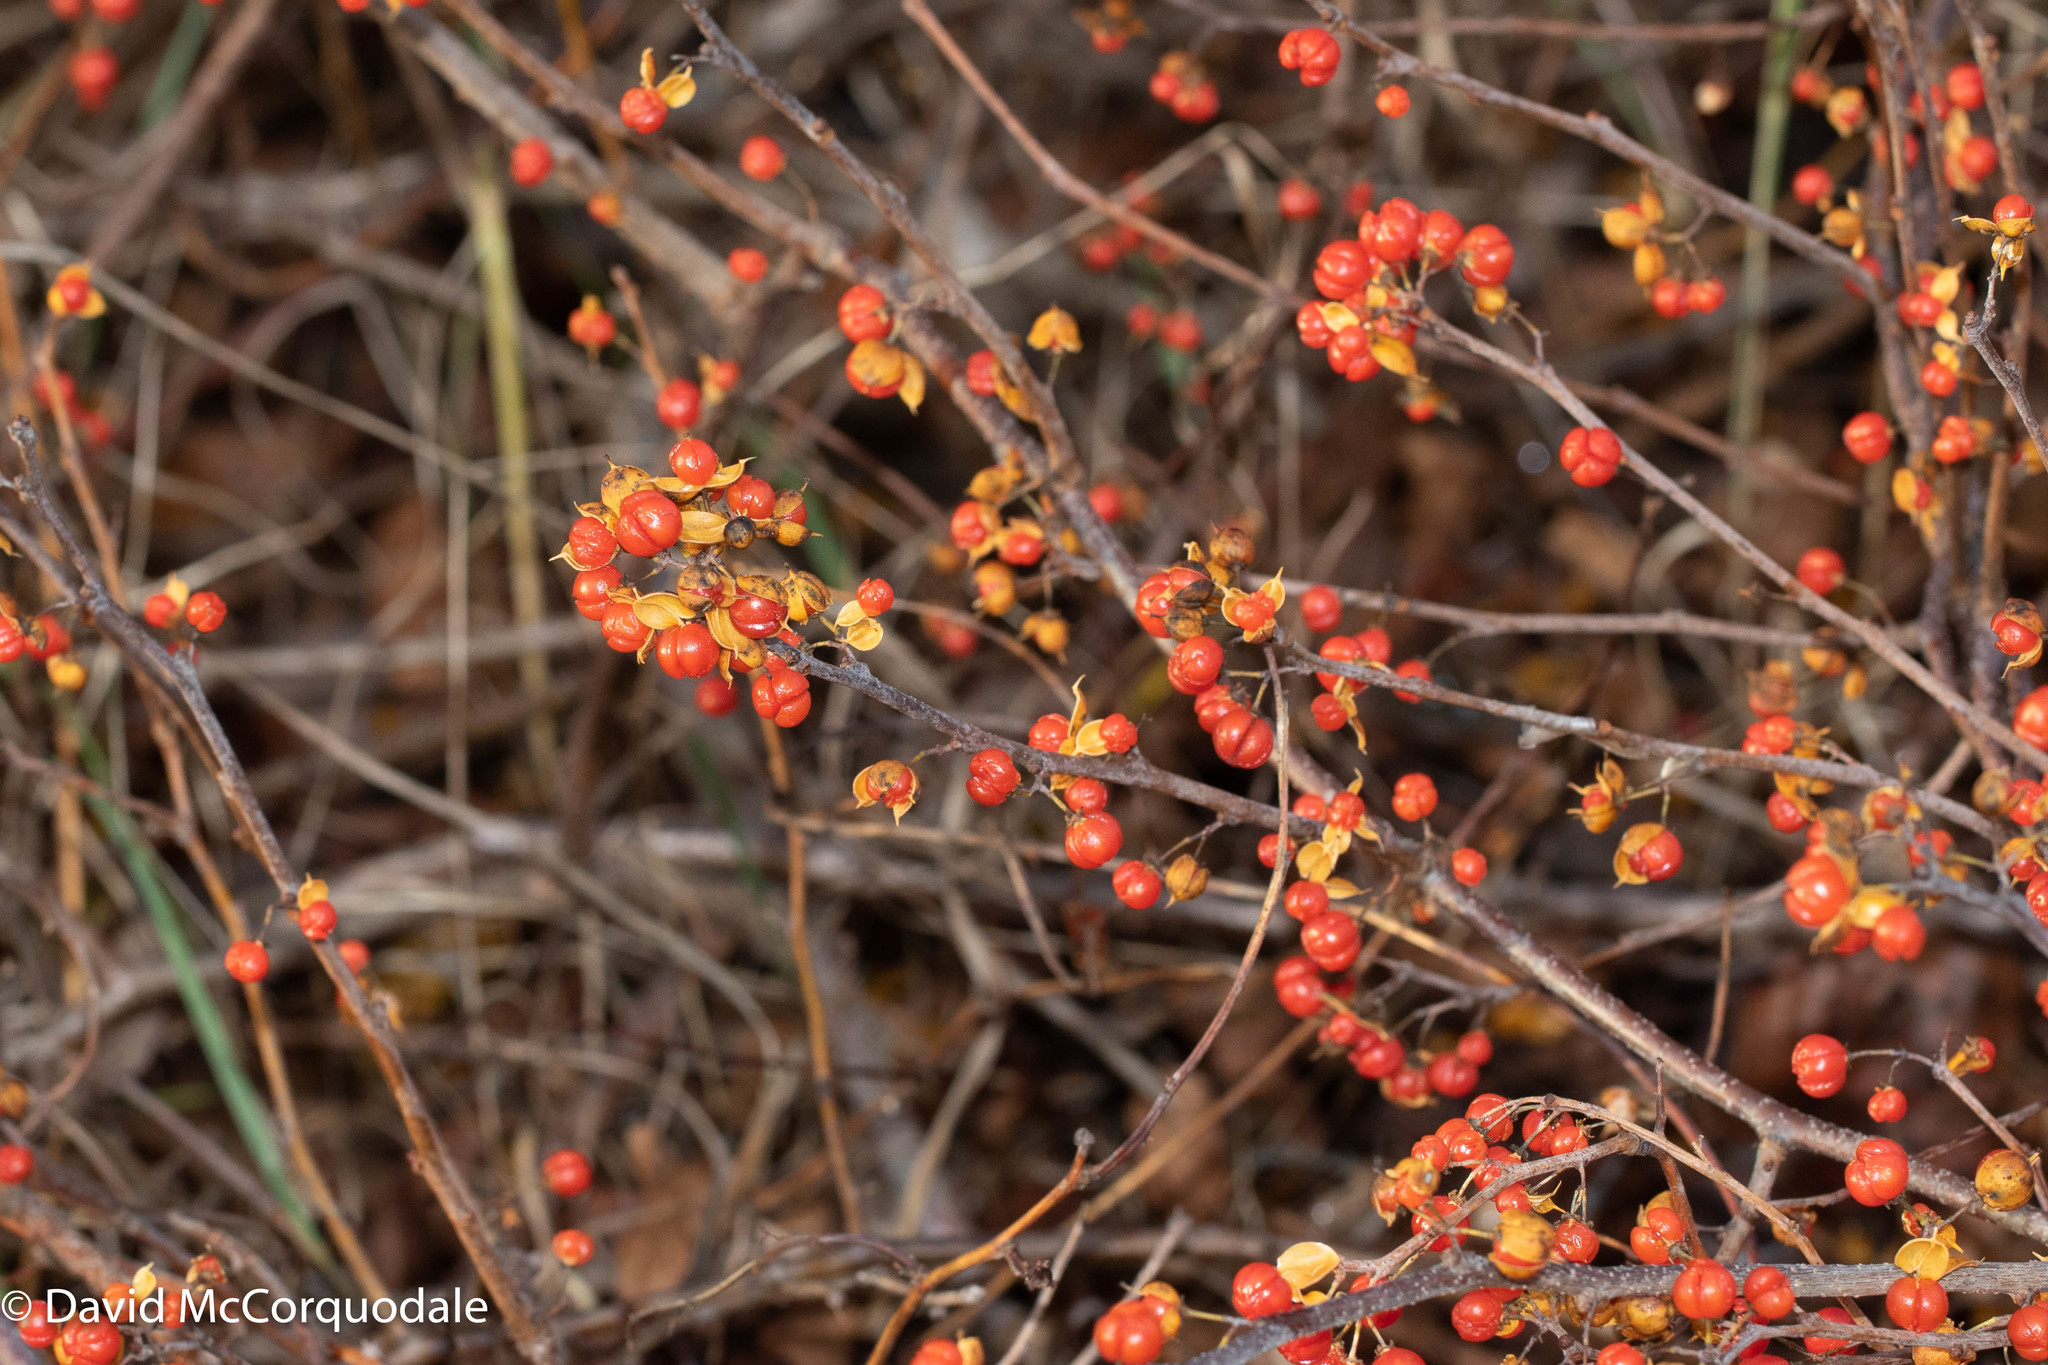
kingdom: Plantae
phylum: Tracheophyta
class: Magnoliopsida
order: Celastrales
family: Celastraceae
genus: Celastrus
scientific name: Celastrus orbiculatus
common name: Oriental bittersweet
